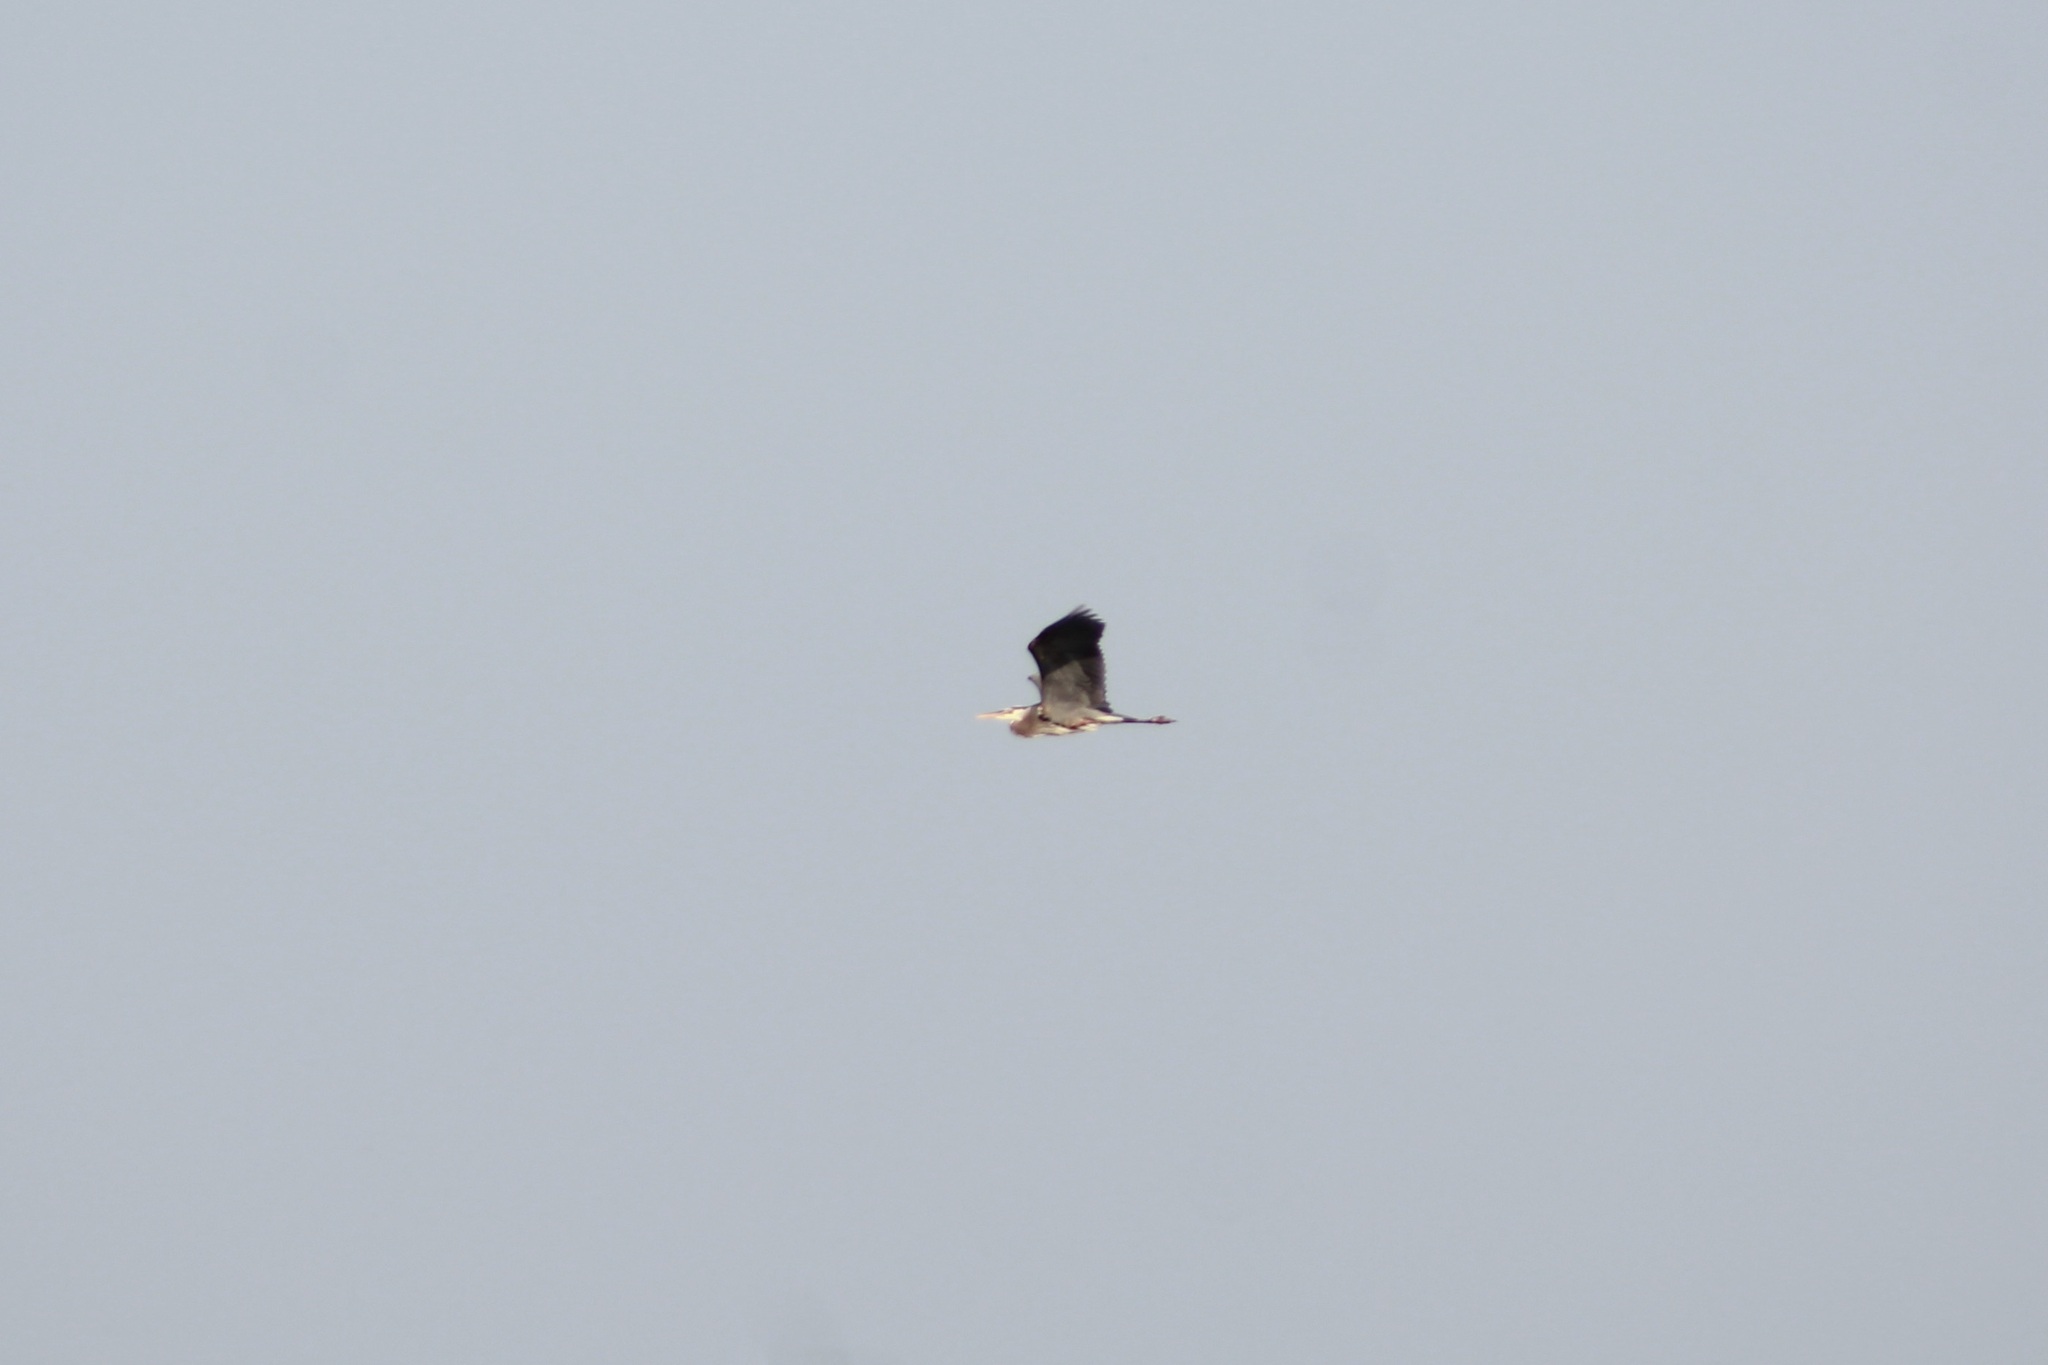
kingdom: Animalia
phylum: Chordata
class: Aves
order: Pelecaniformes
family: Ardeidae
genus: Ardea
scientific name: Ardea herodias
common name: Great blue heron
